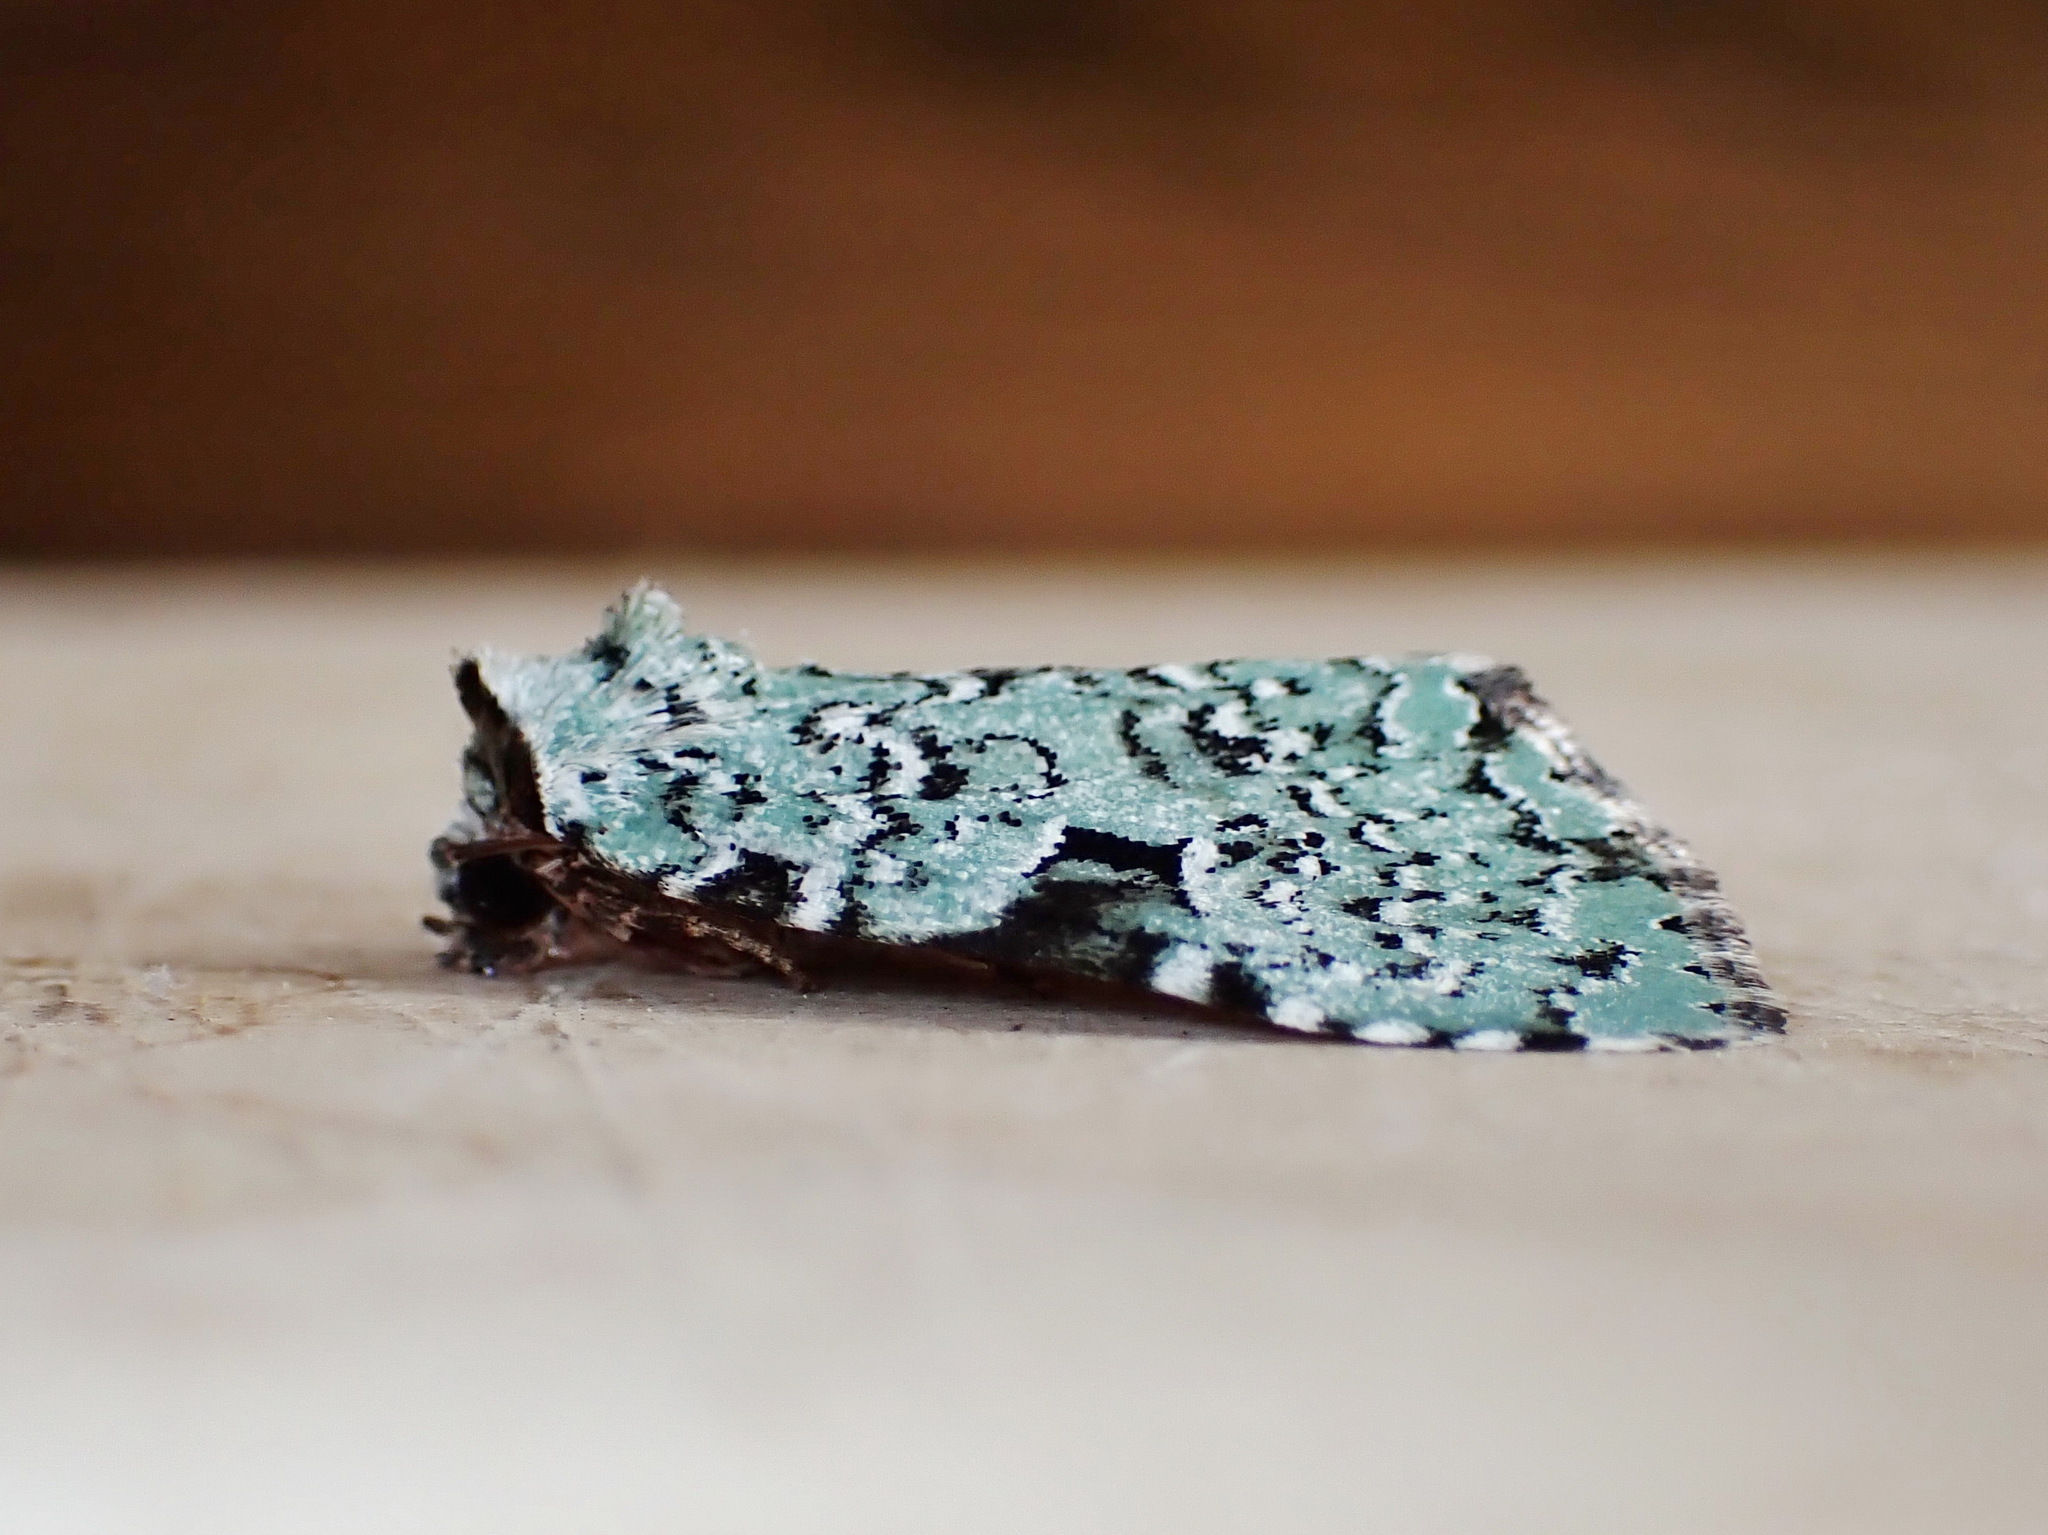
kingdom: Animalia
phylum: Arthropoda
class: Insecta
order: Lepidoptera
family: Noctuidae
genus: Leuconycta
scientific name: Leuconycta diphteroides
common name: Green leuconycta moth
